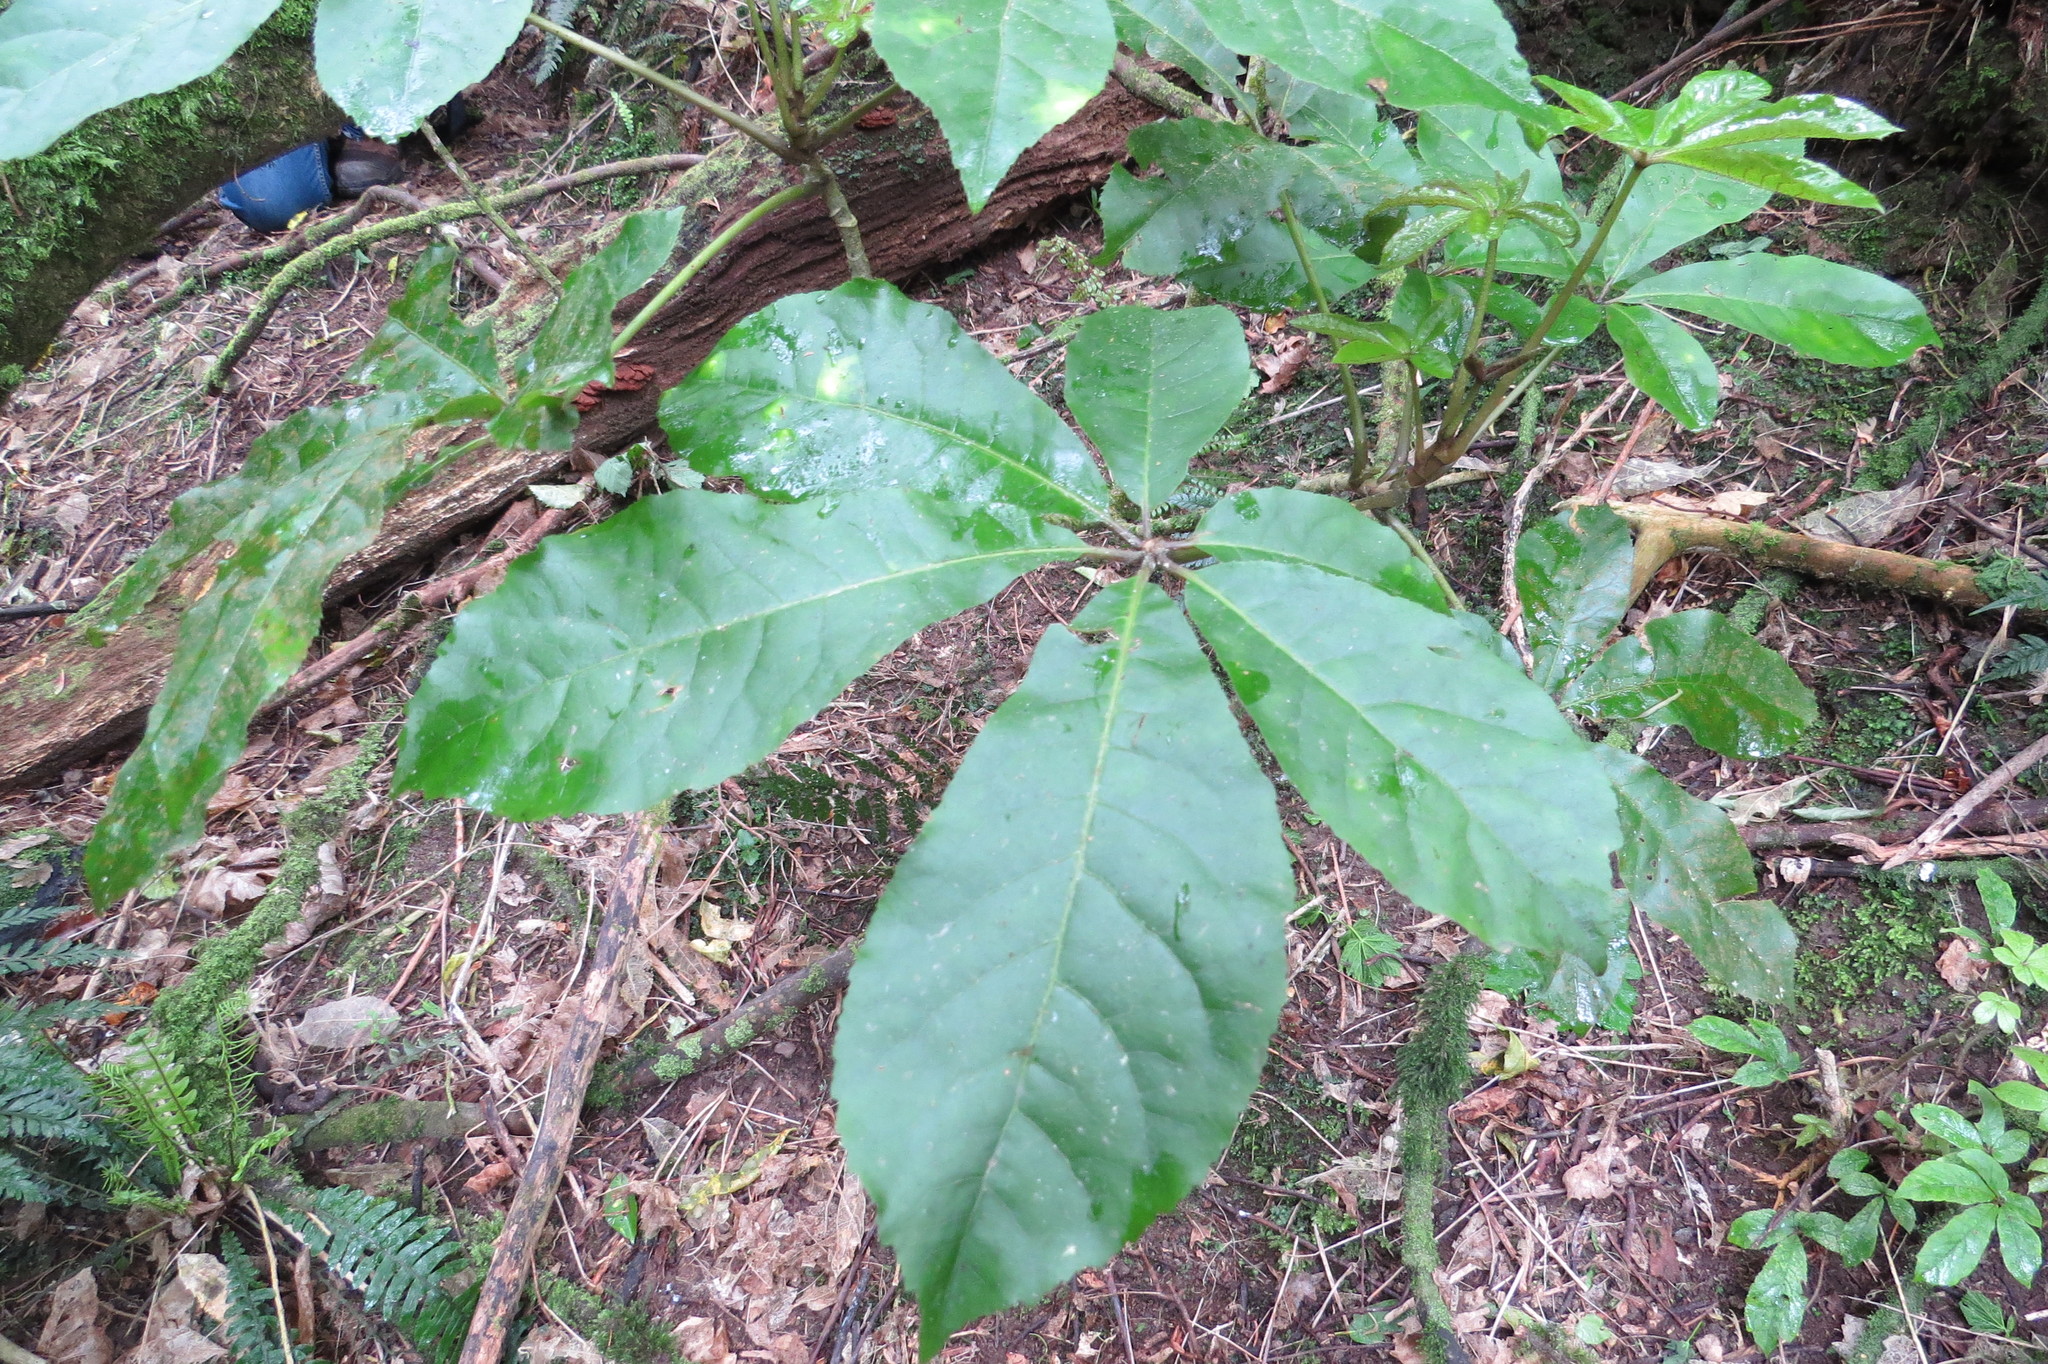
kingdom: Plantae
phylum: Tracheophyta
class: Magnoliopsida
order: Apiales
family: Araliaceae
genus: Schefflera
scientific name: Schefflera digitata
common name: Pate
